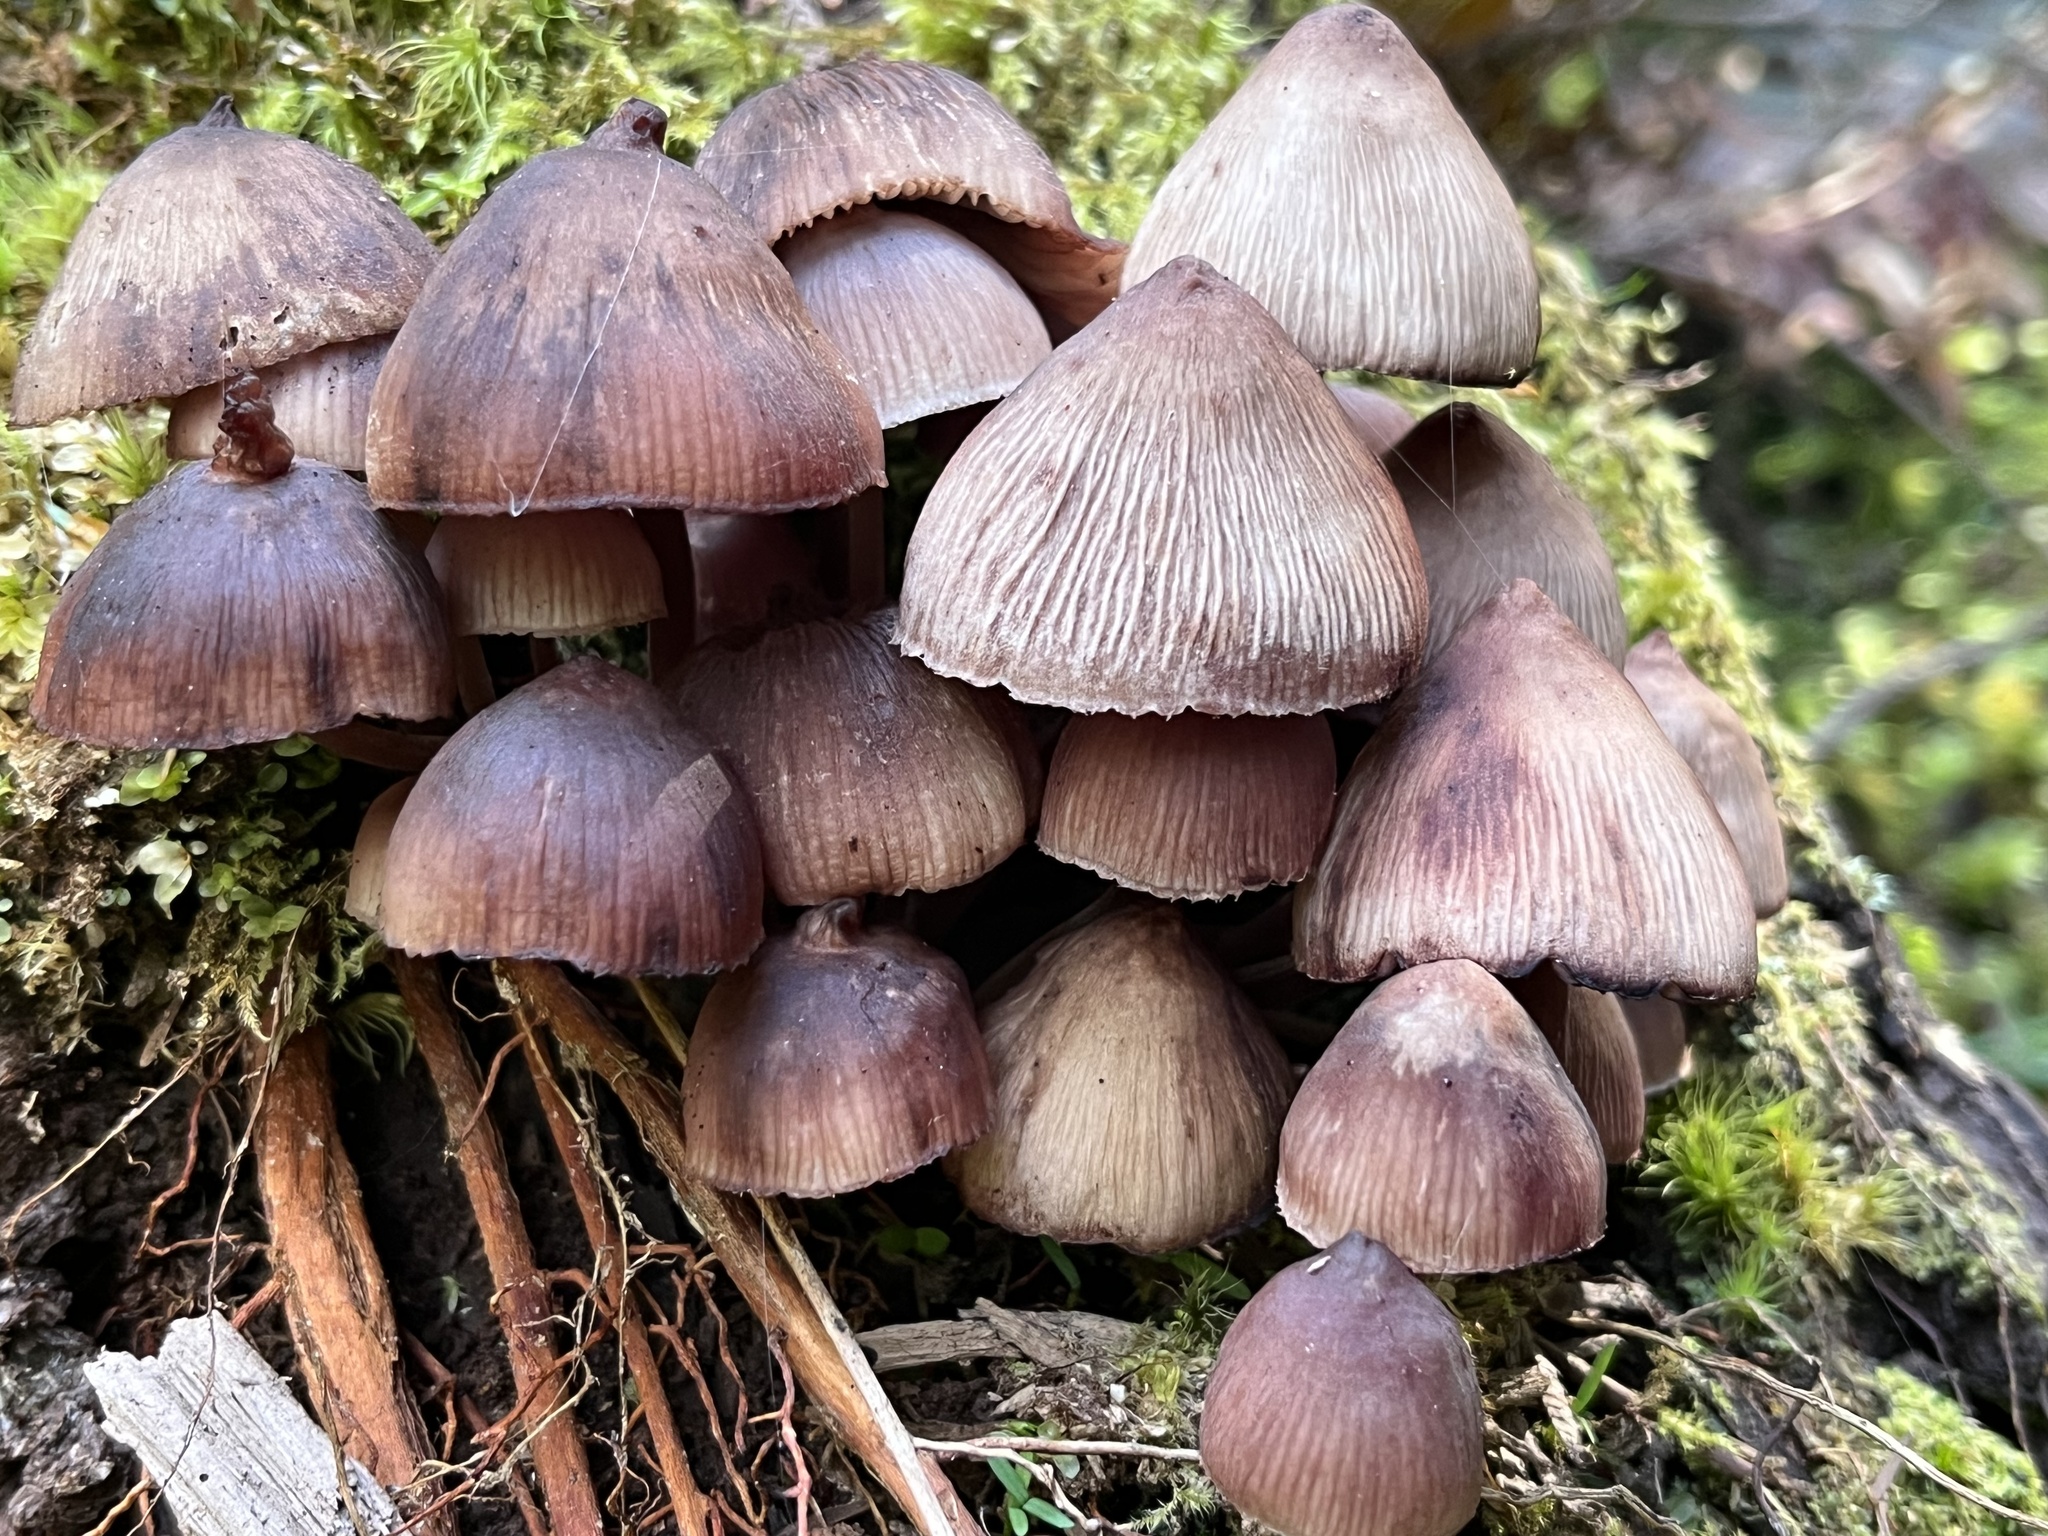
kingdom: Fungi
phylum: Basidiomycota
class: Agaricomycetes
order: Agaricales
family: Mycenaceae
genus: Mycena
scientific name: Mycena haematopus
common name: Burgundydrop bonnet
